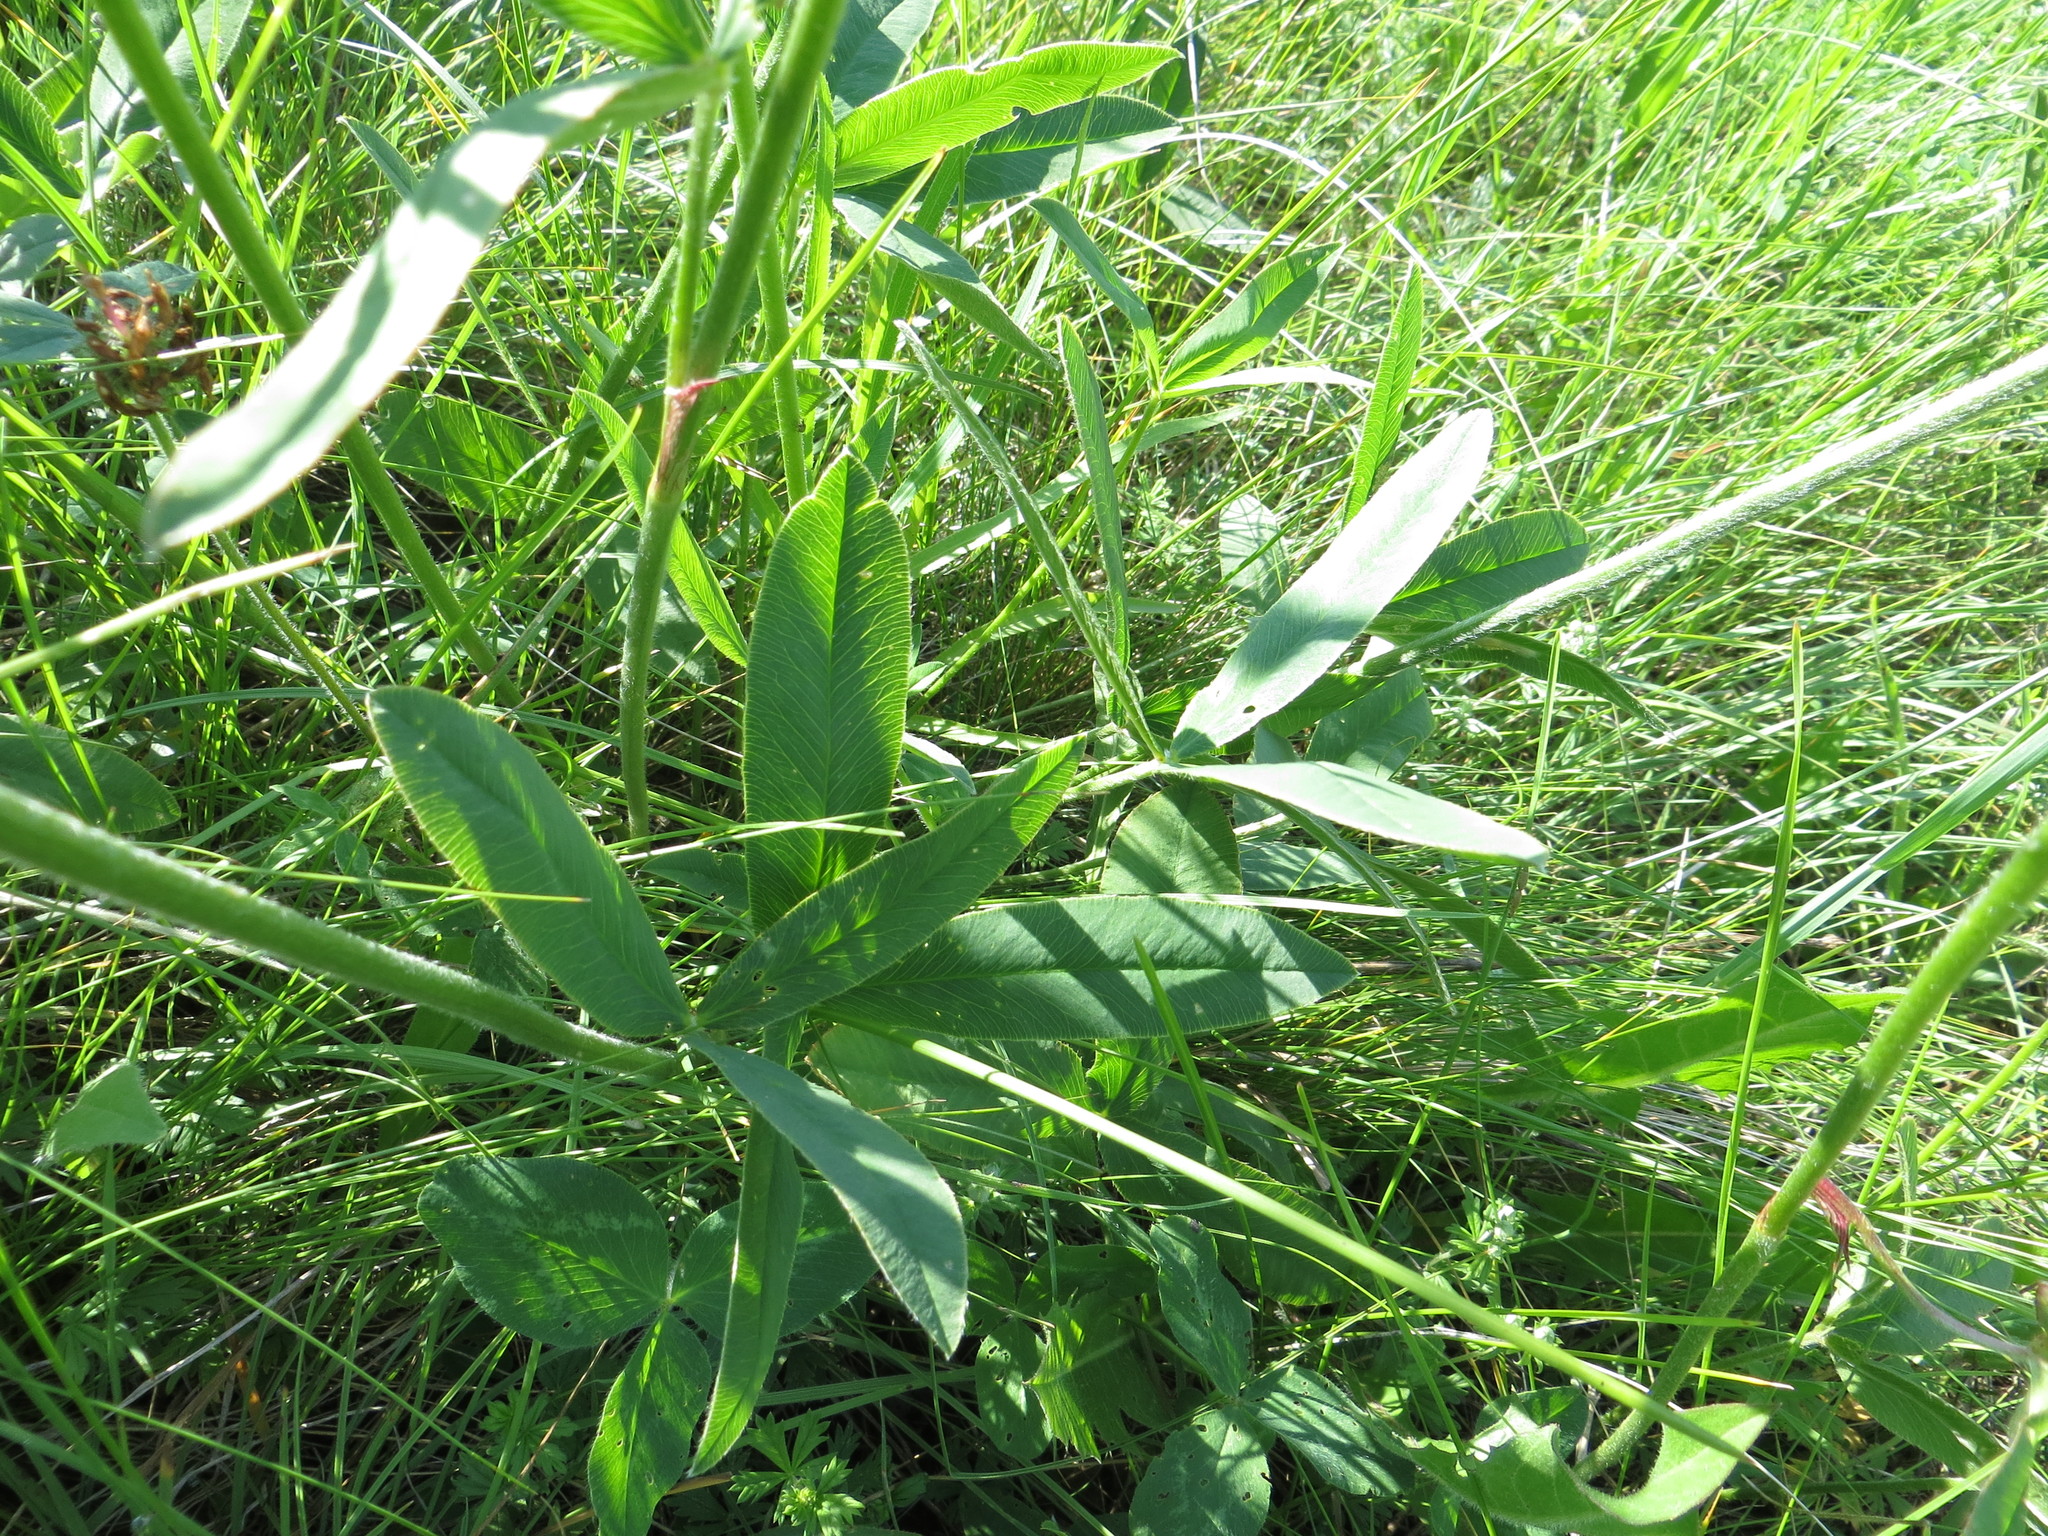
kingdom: Plantae
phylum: Tracheophyta
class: Magnoliopsida
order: Fabales
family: Fabaceae
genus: Trifolium
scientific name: Trifolium montanum
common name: Mountain clover
